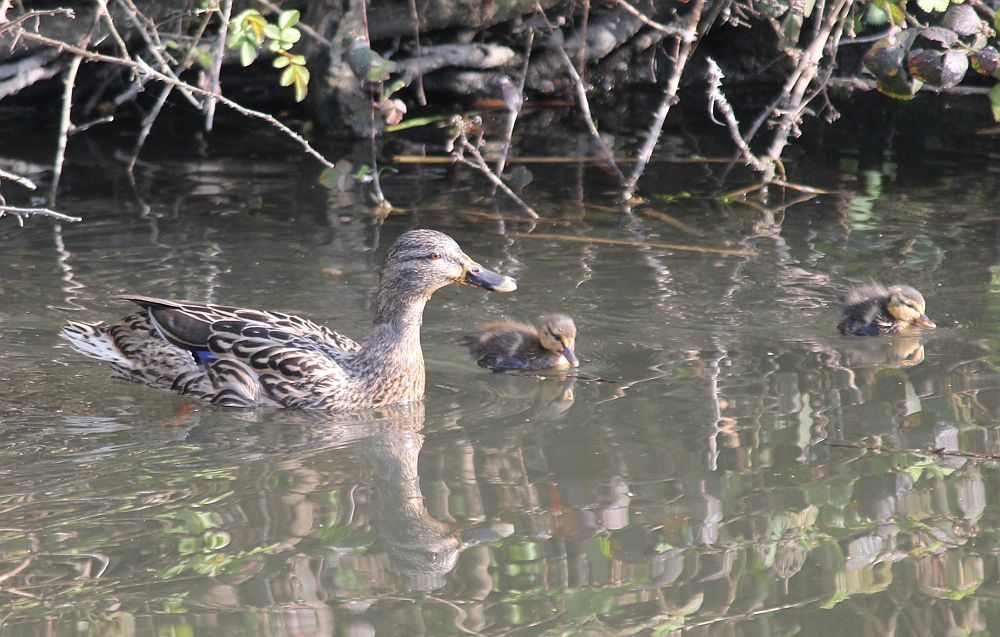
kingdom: Animalia
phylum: Chordata
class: Aves
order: Anseriformes
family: Anatidae
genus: Anas
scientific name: Anas platyrhynchos
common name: Mallard
